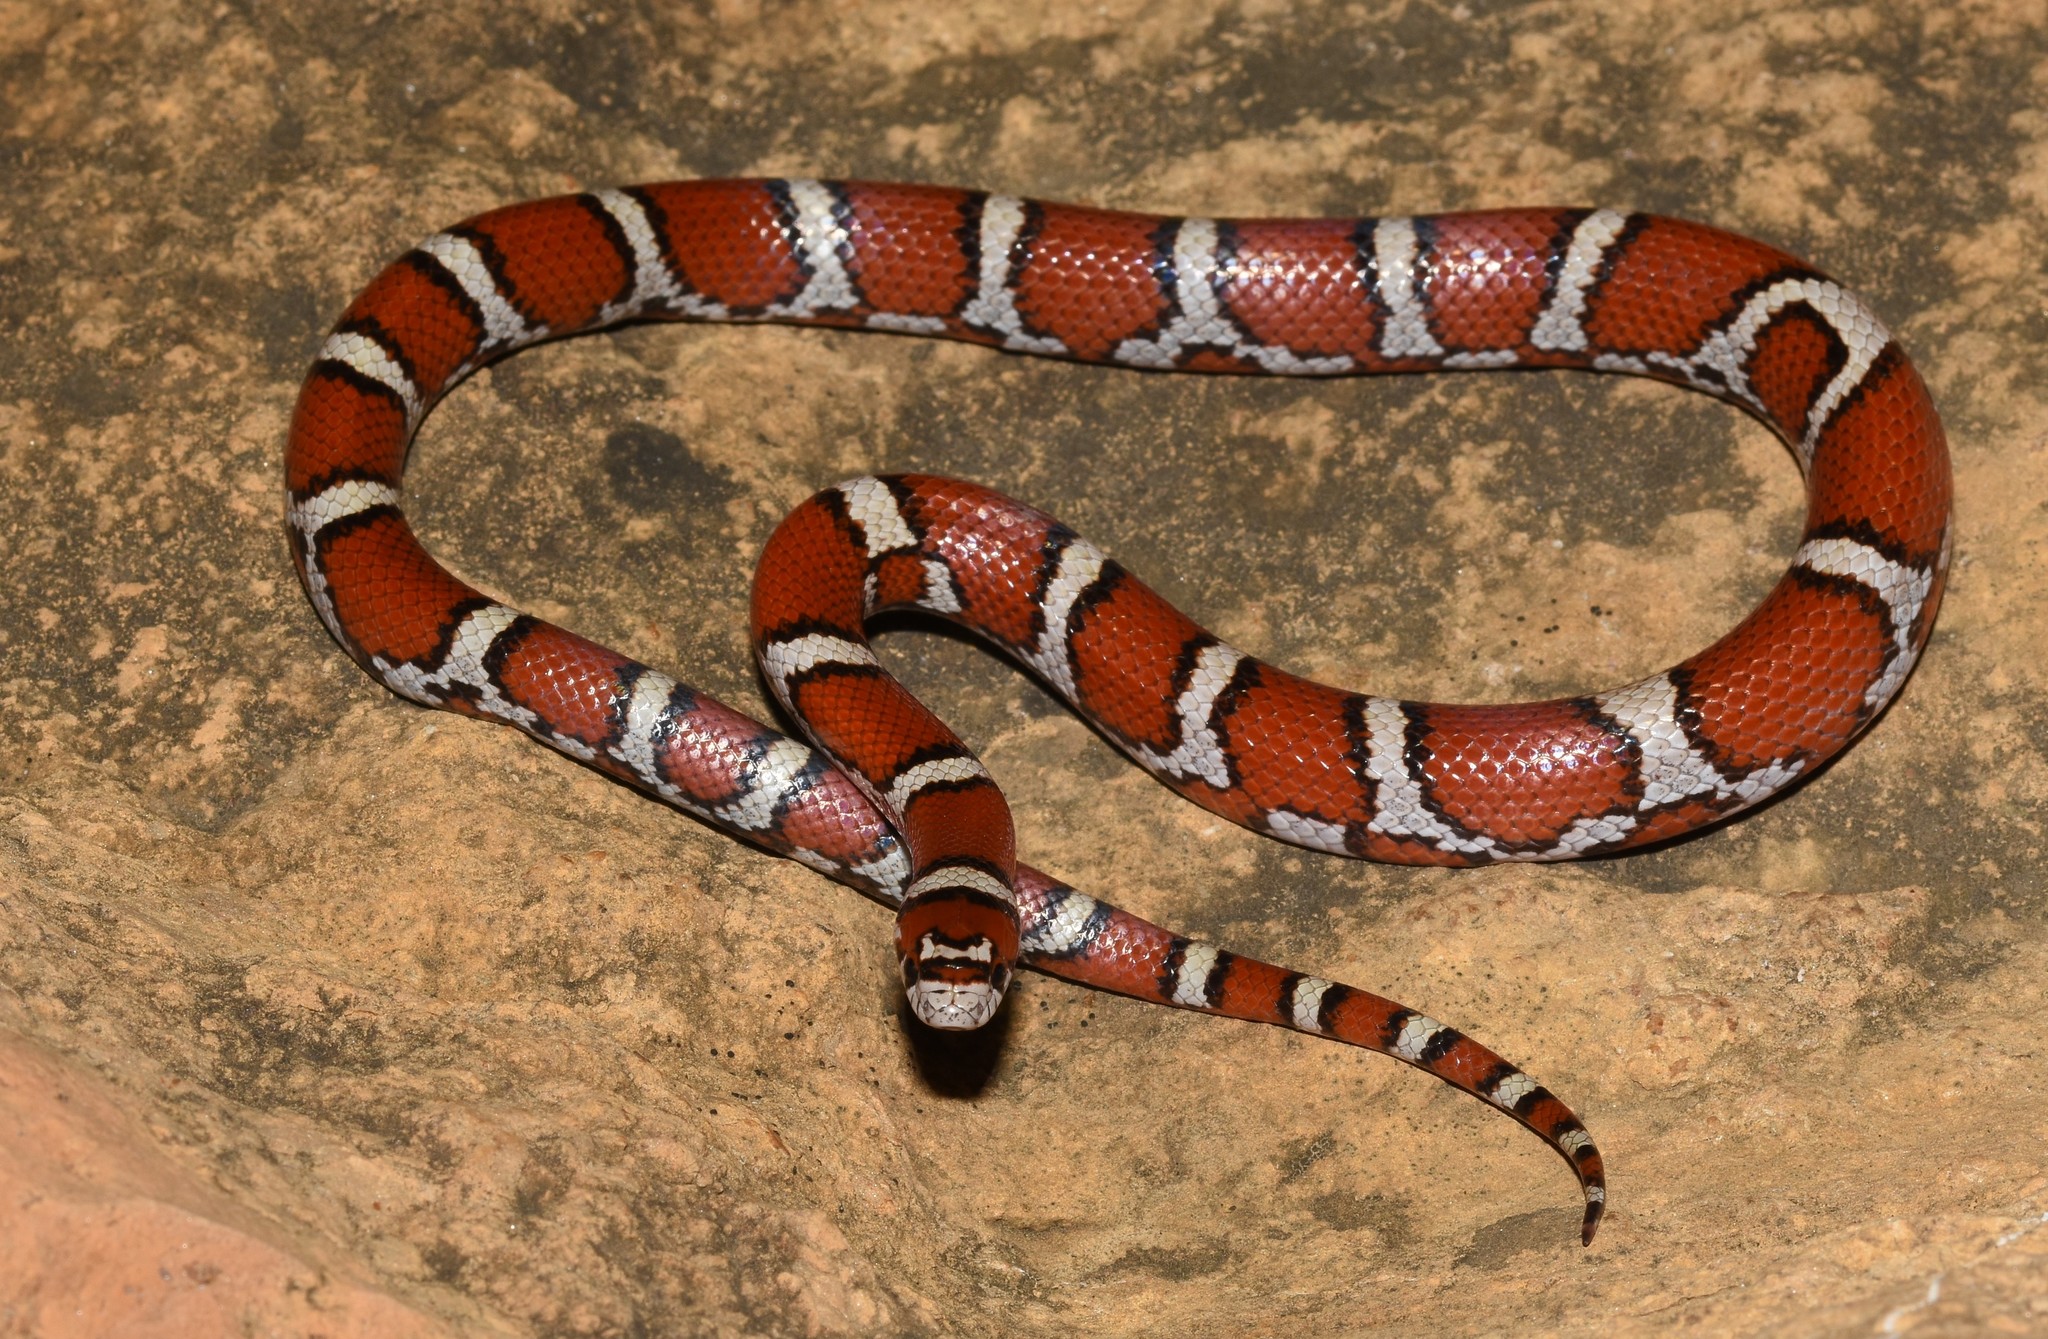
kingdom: Animalia
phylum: Chordata
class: Squamata
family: Colubridae
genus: Lampropeltis
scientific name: Lampropeltis triangulum
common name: Eastern milksnake
